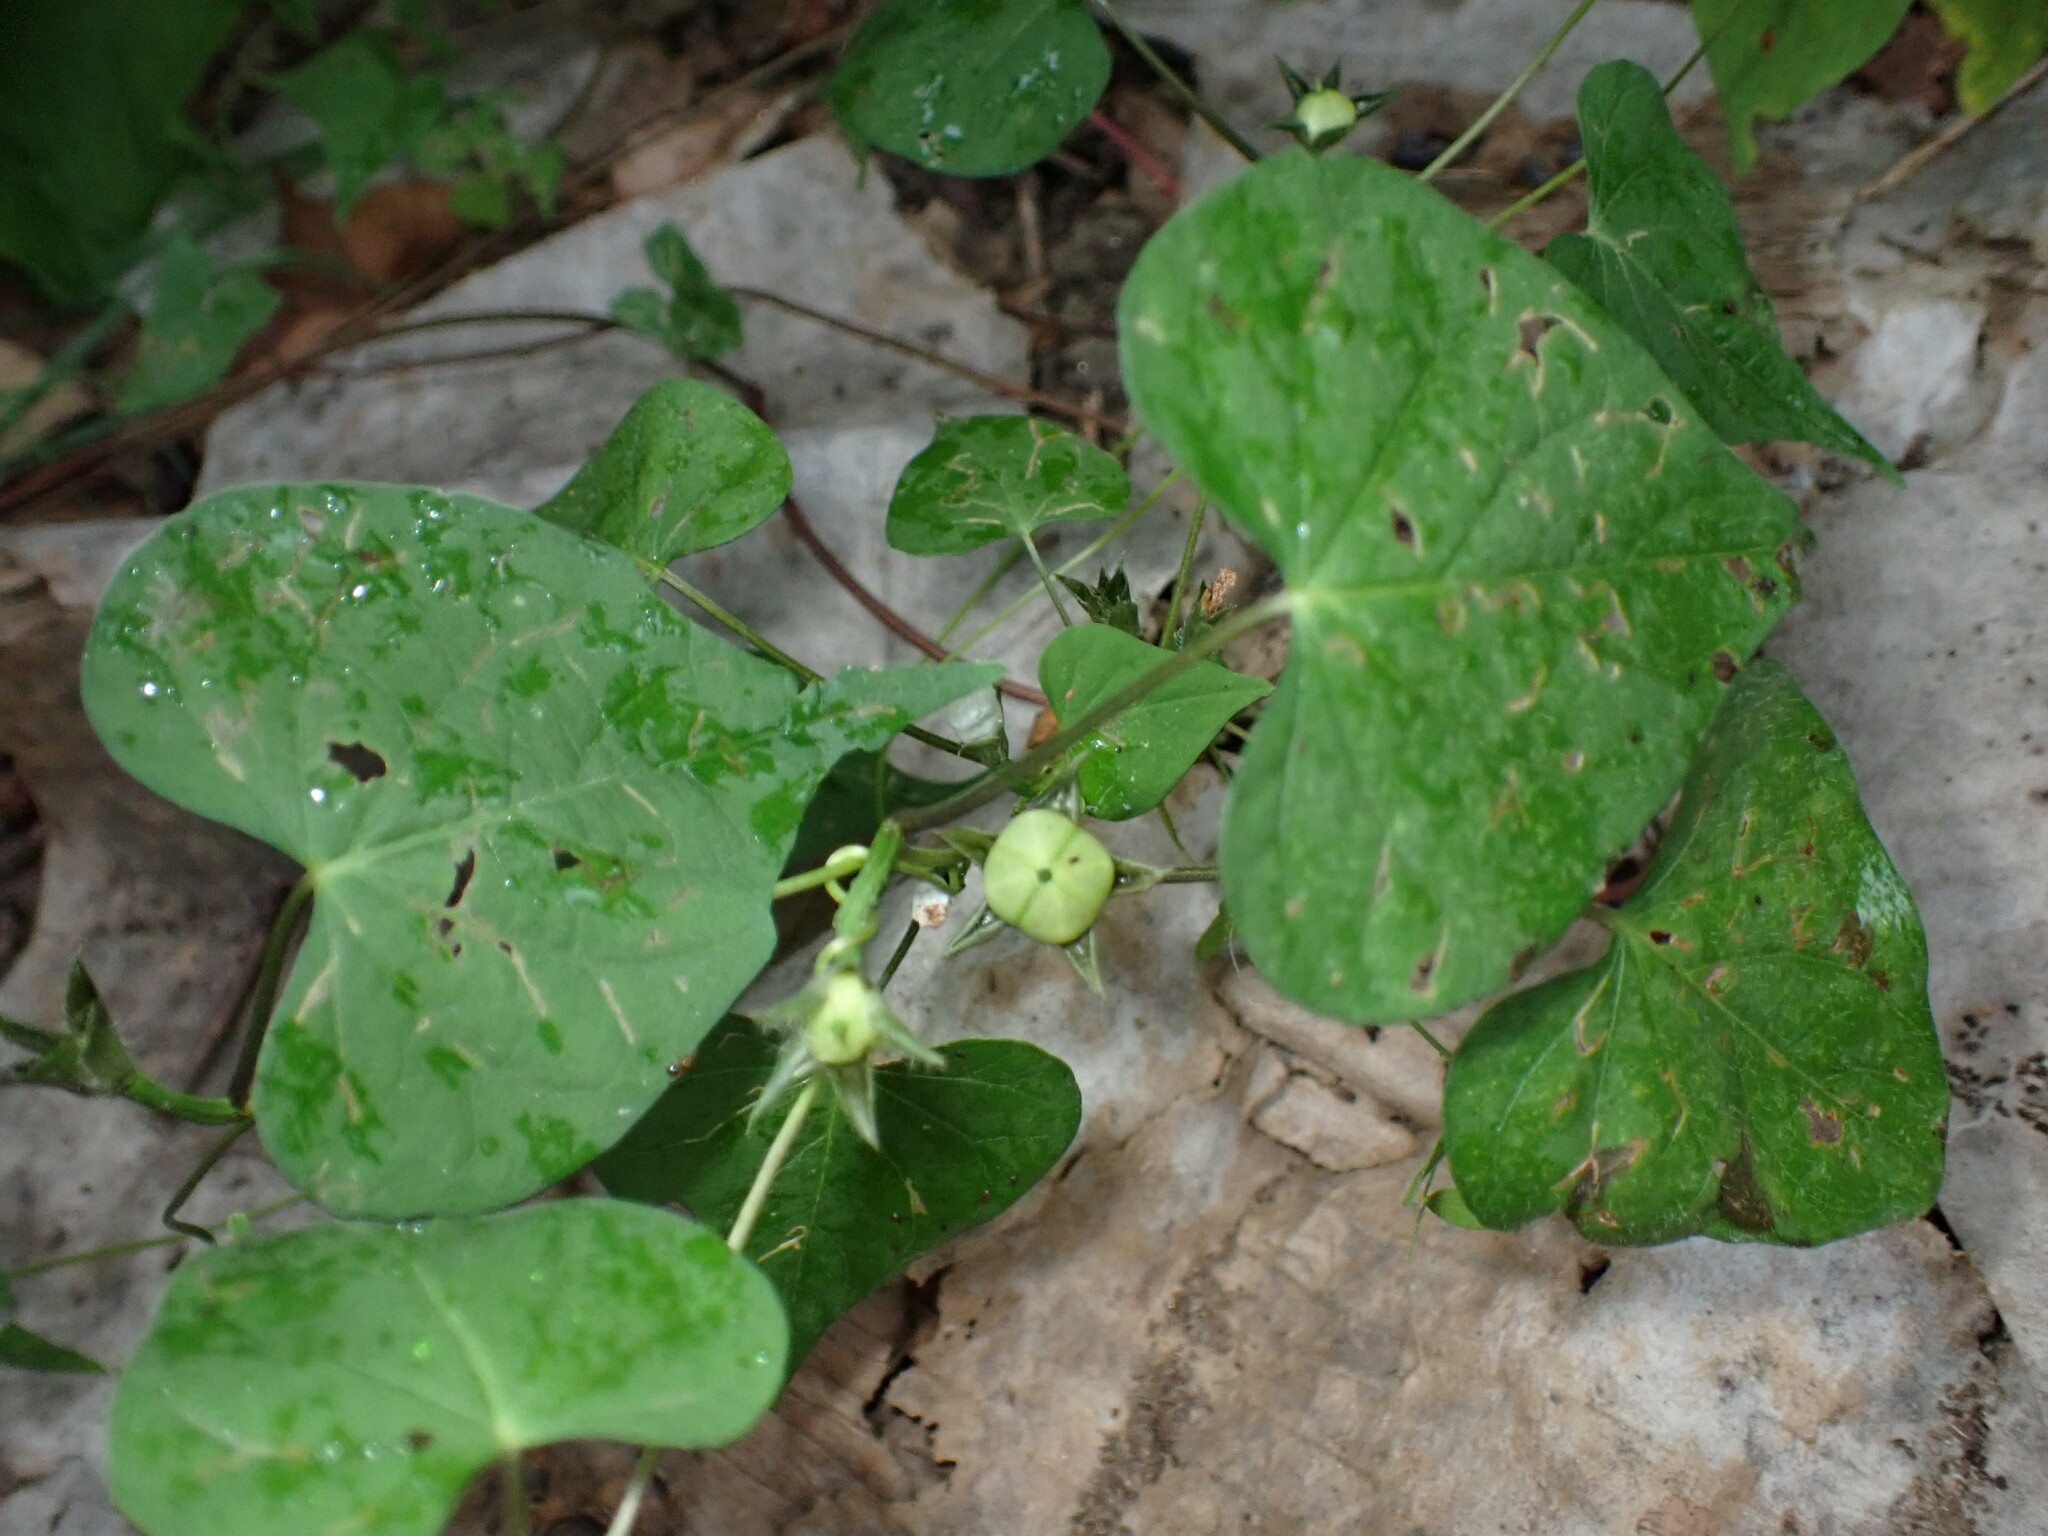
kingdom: Plantae
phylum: Tracheophyta
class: Magnoliopsida
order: Solanales
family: Convolvulaceae
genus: Ipomoea
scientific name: Ipomoea lacunosa
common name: White morning-glory
